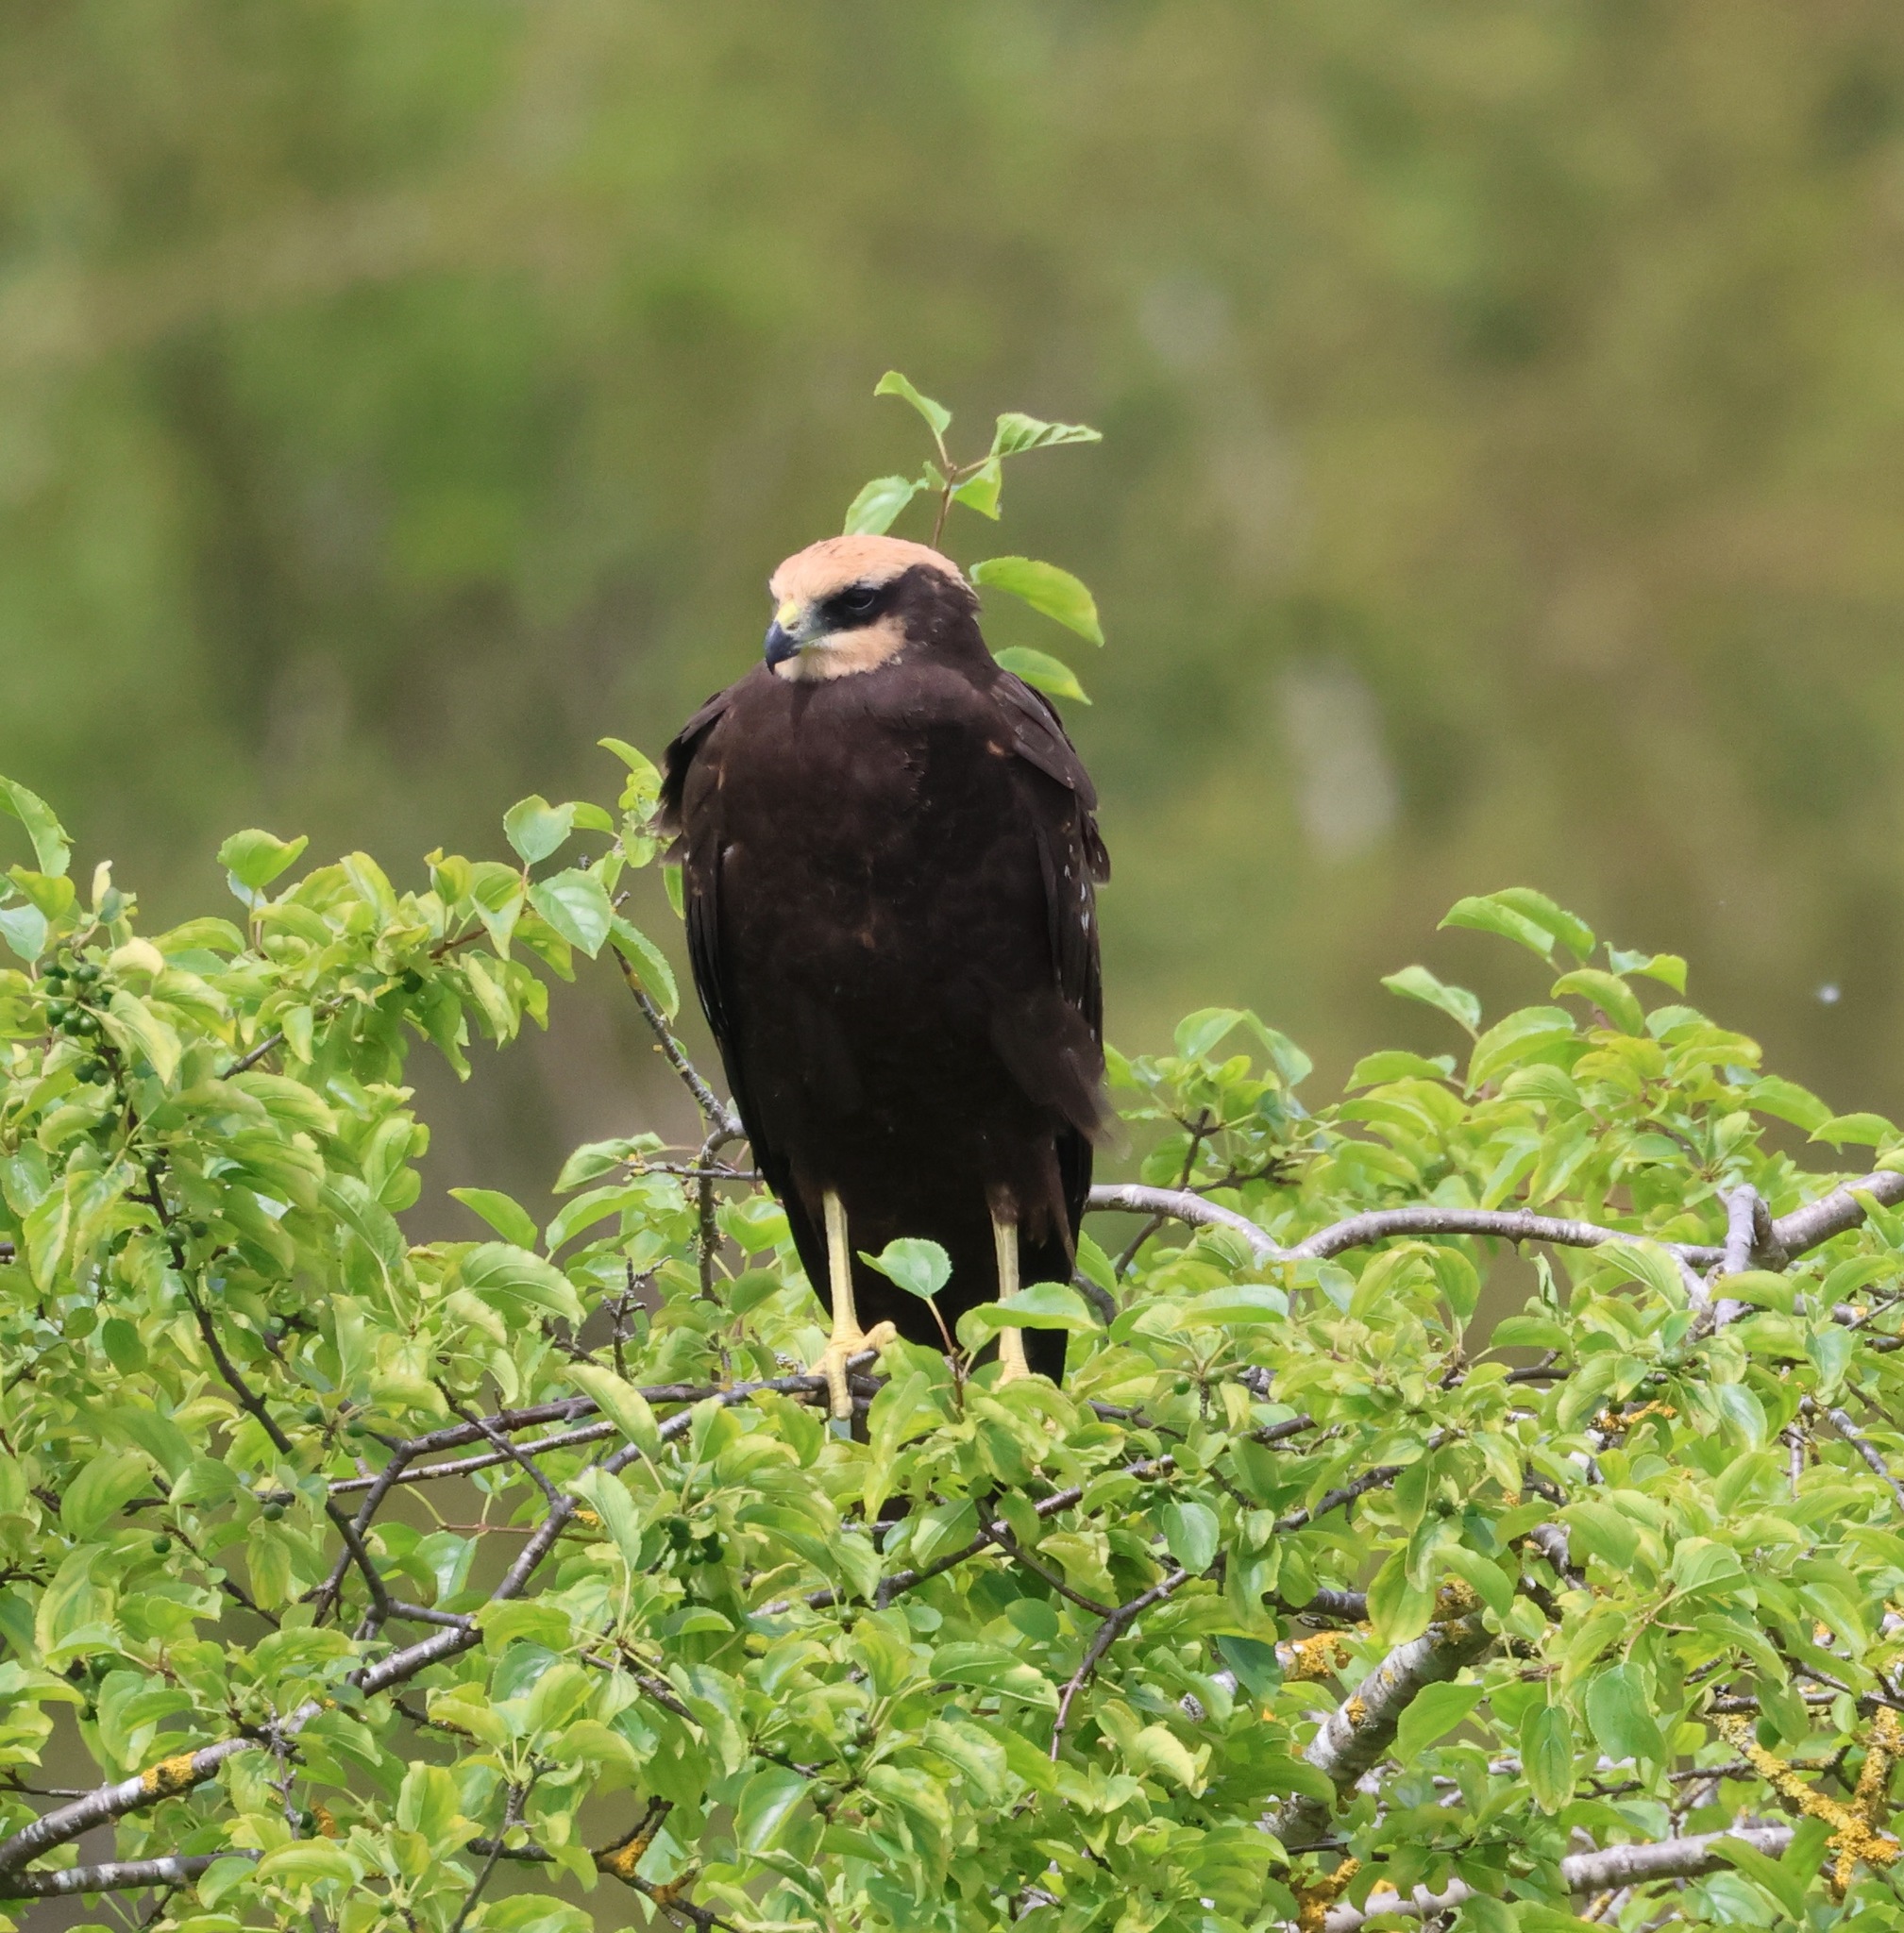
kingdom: Animalia
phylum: Chordata
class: Aves
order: Accipitriformes
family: Accipitridae
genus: Circus
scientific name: Circus aeruginosus
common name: Western marsh harrier
